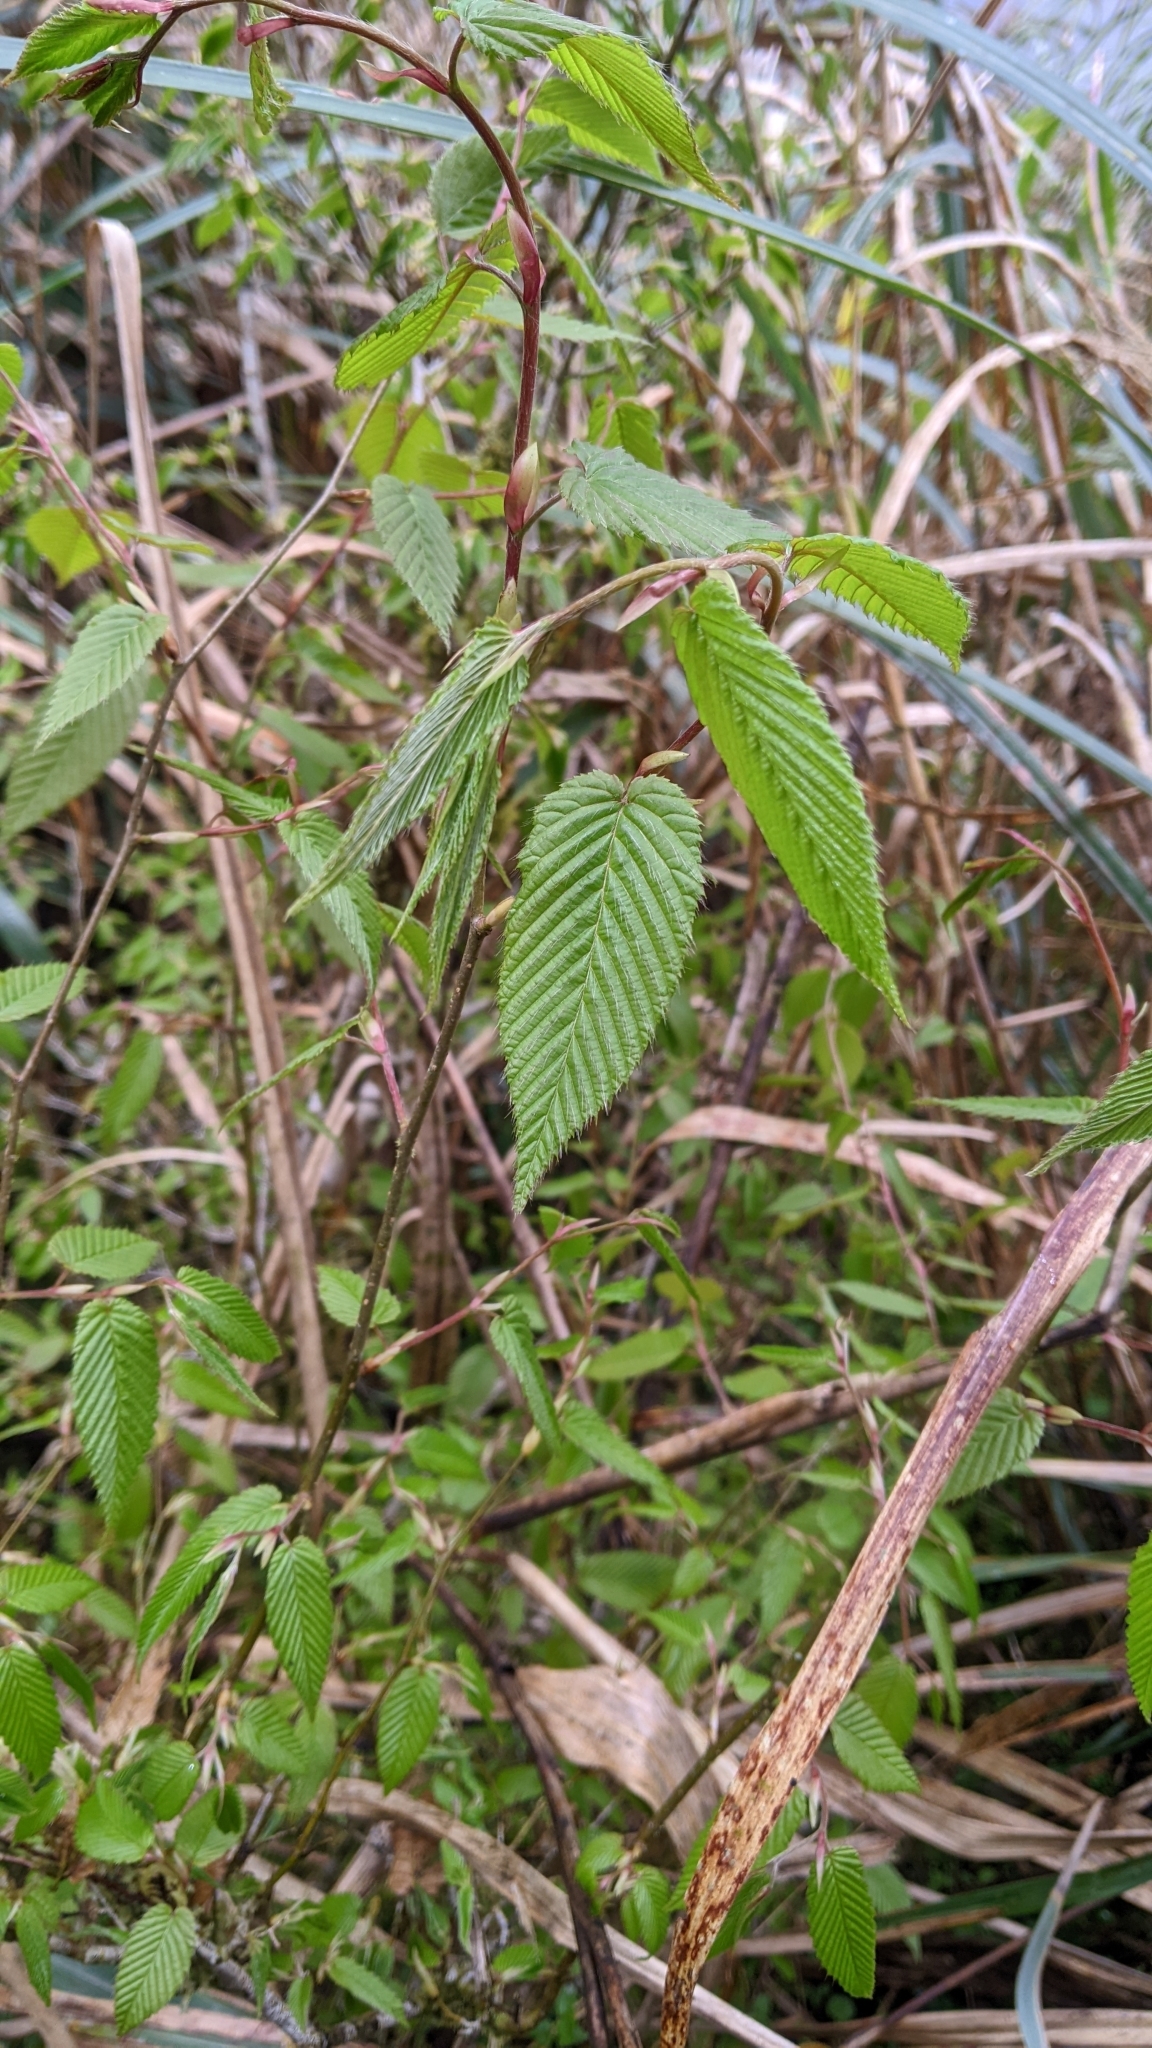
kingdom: Plantae
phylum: Tracheophyta
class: Magnoliopsida
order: Fagales
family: Betulaceae
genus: Carpinus
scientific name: Carpinus rankanensis
